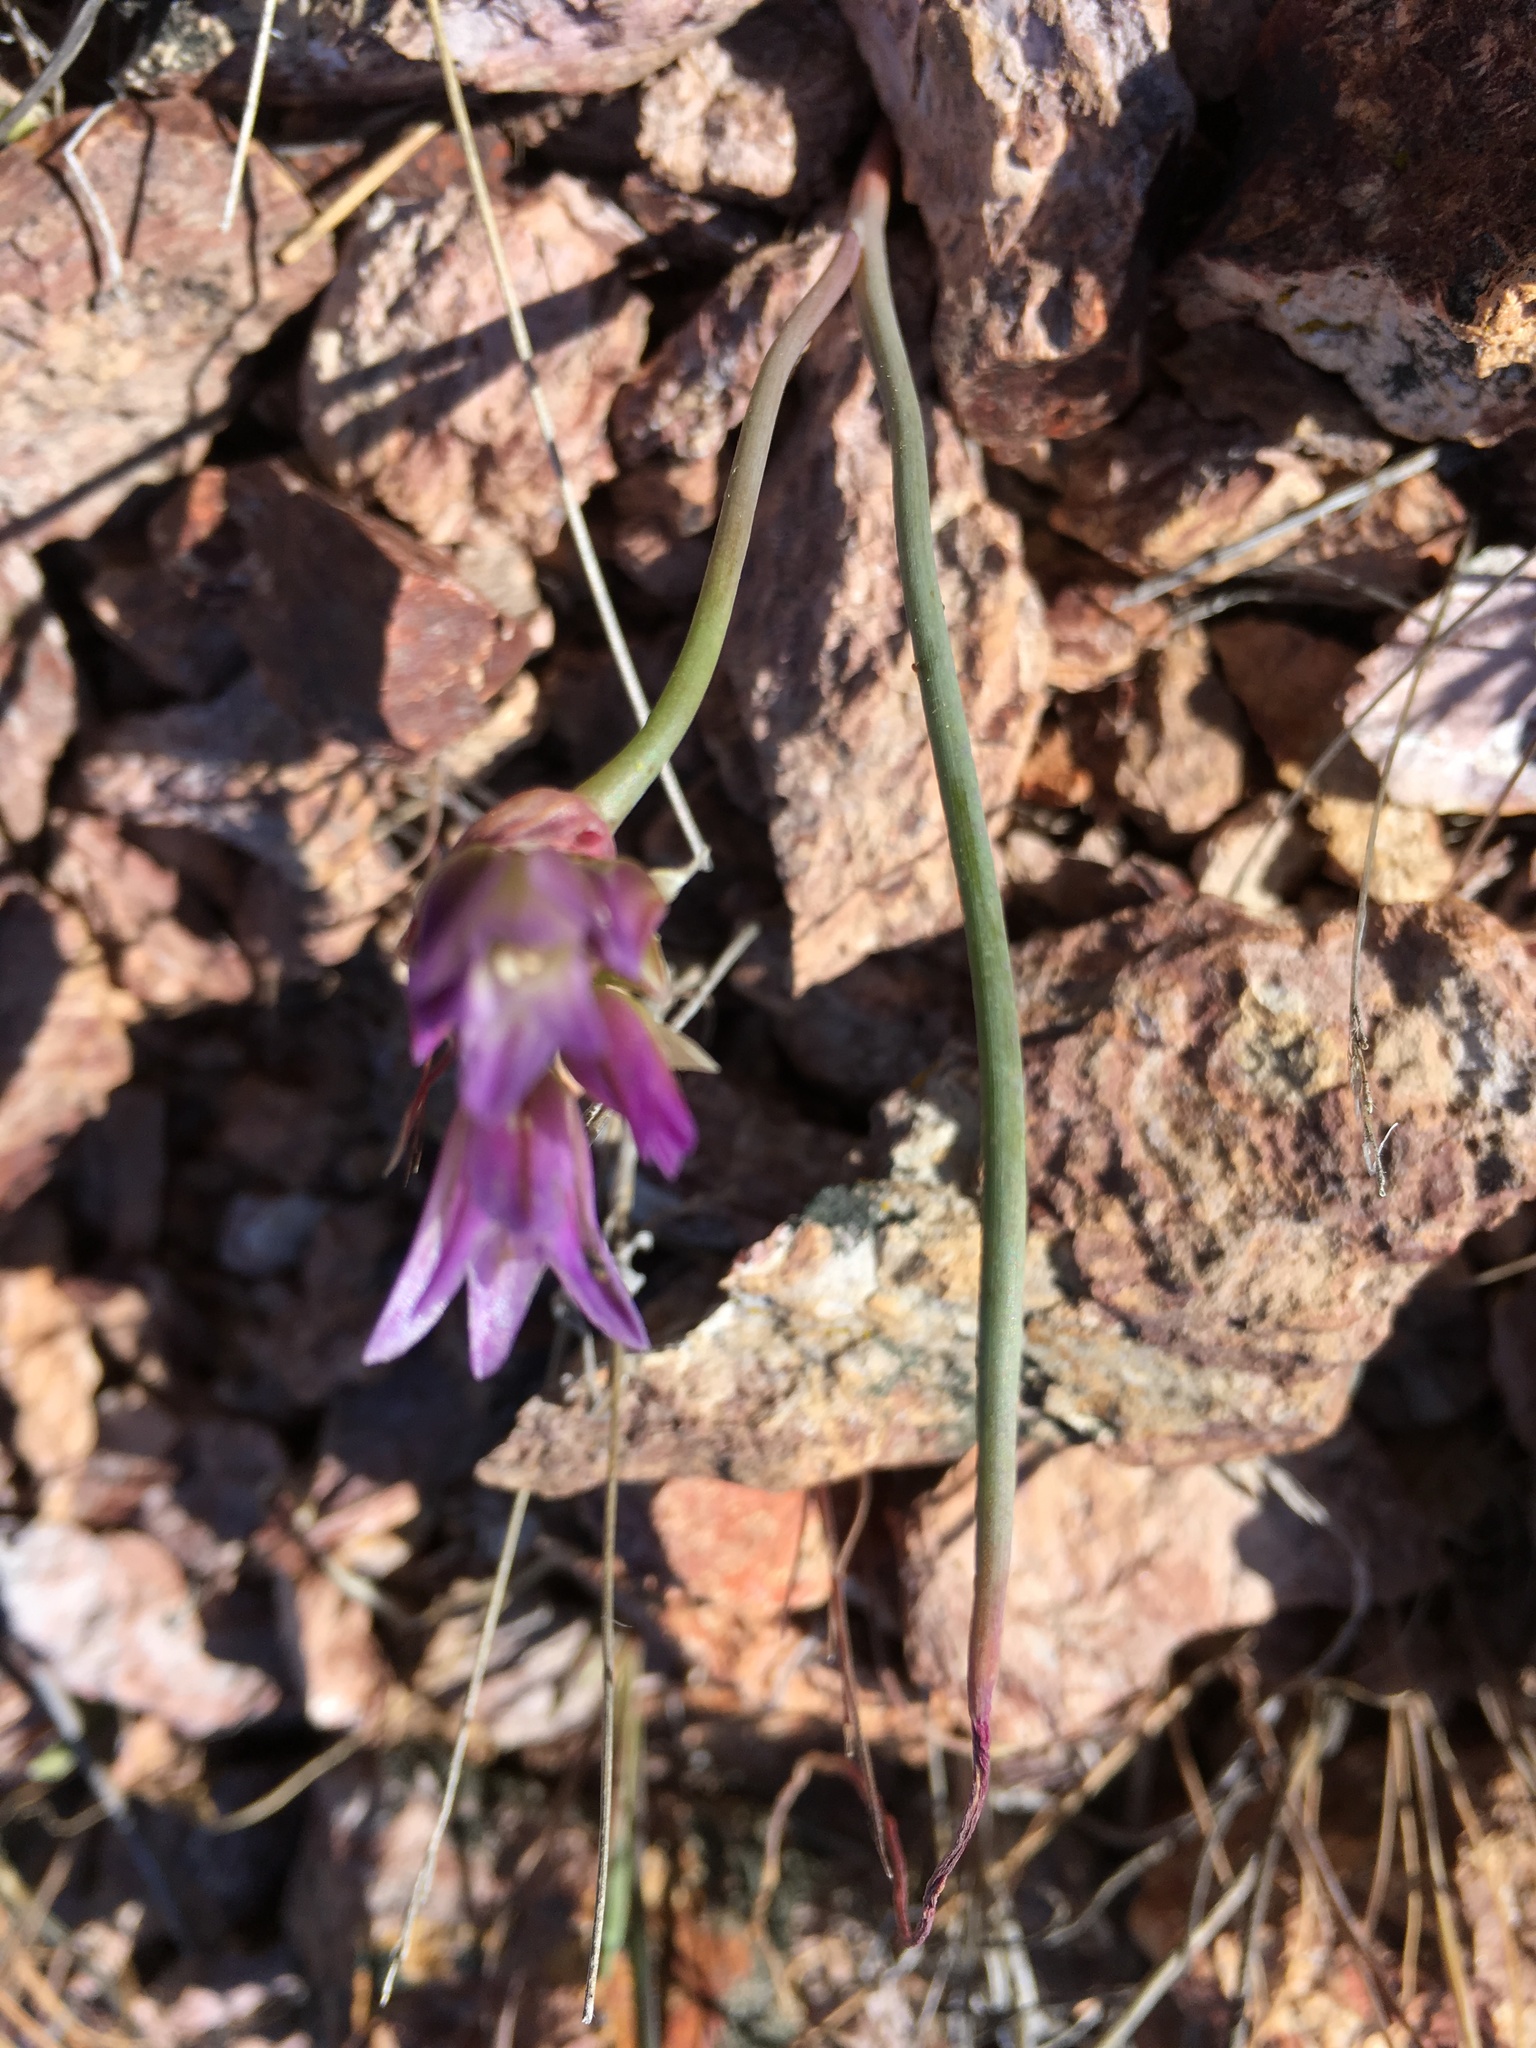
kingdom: Plantae
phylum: Tracheophyta
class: Liliopsida
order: Asparagales
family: Amaryllidaceae
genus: Allium
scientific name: Allium fimbriatum
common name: Fringed onion
